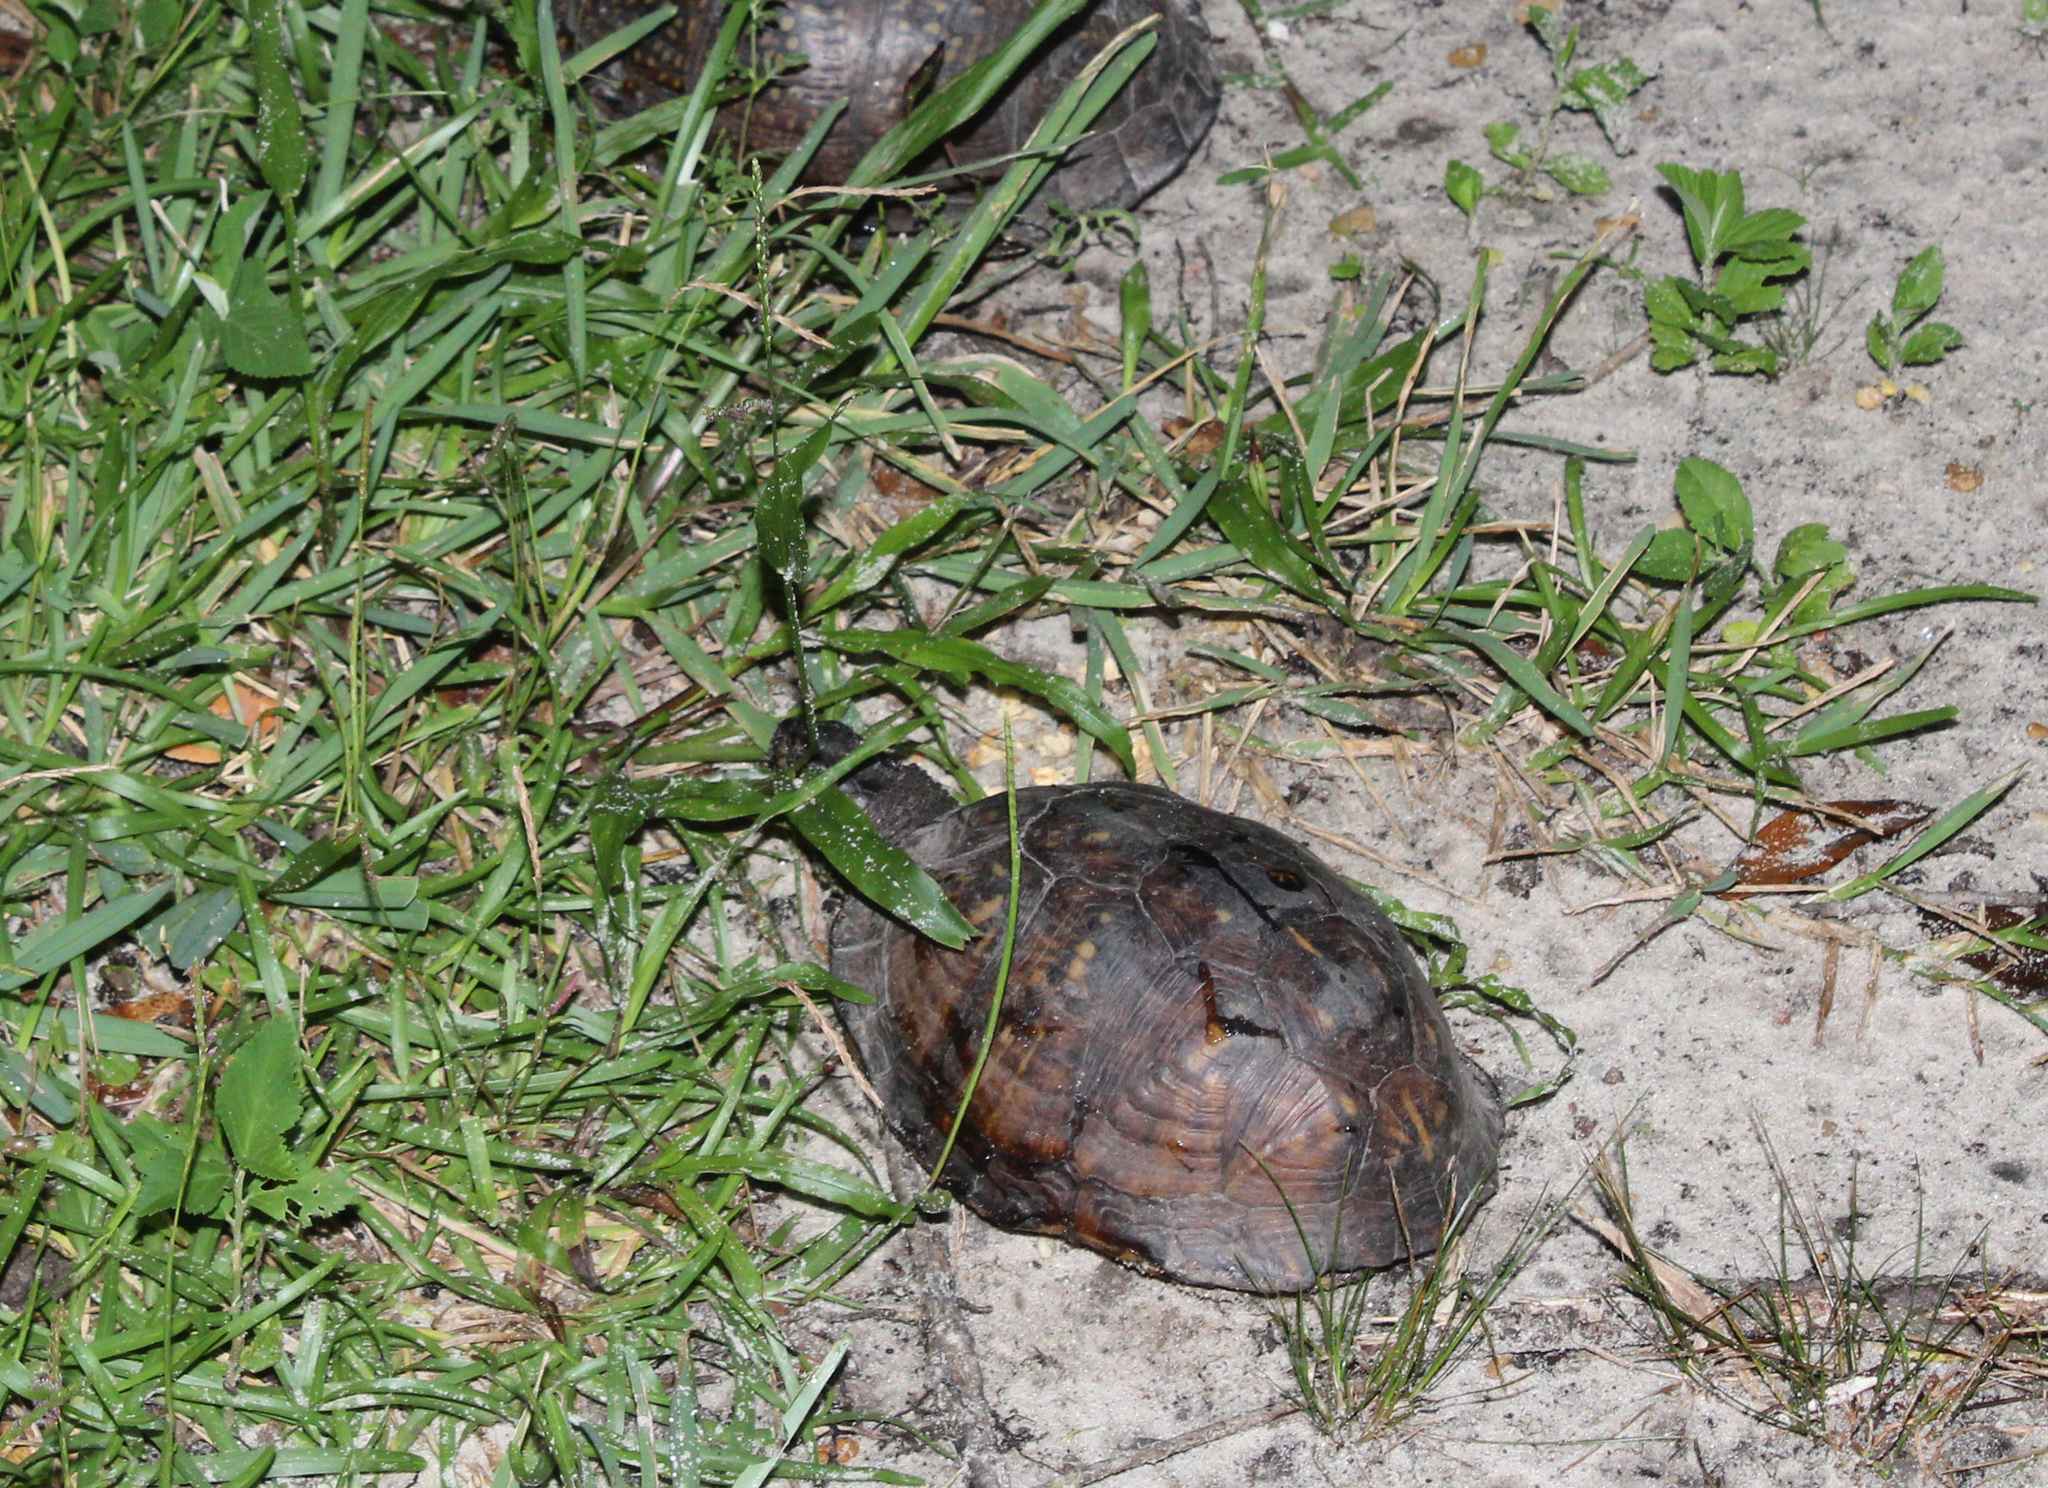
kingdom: Animalia
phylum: Chordata
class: Testudines
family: Emydidae
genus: Terrapene
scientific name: Terrapene carolina
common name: Common box turtle
